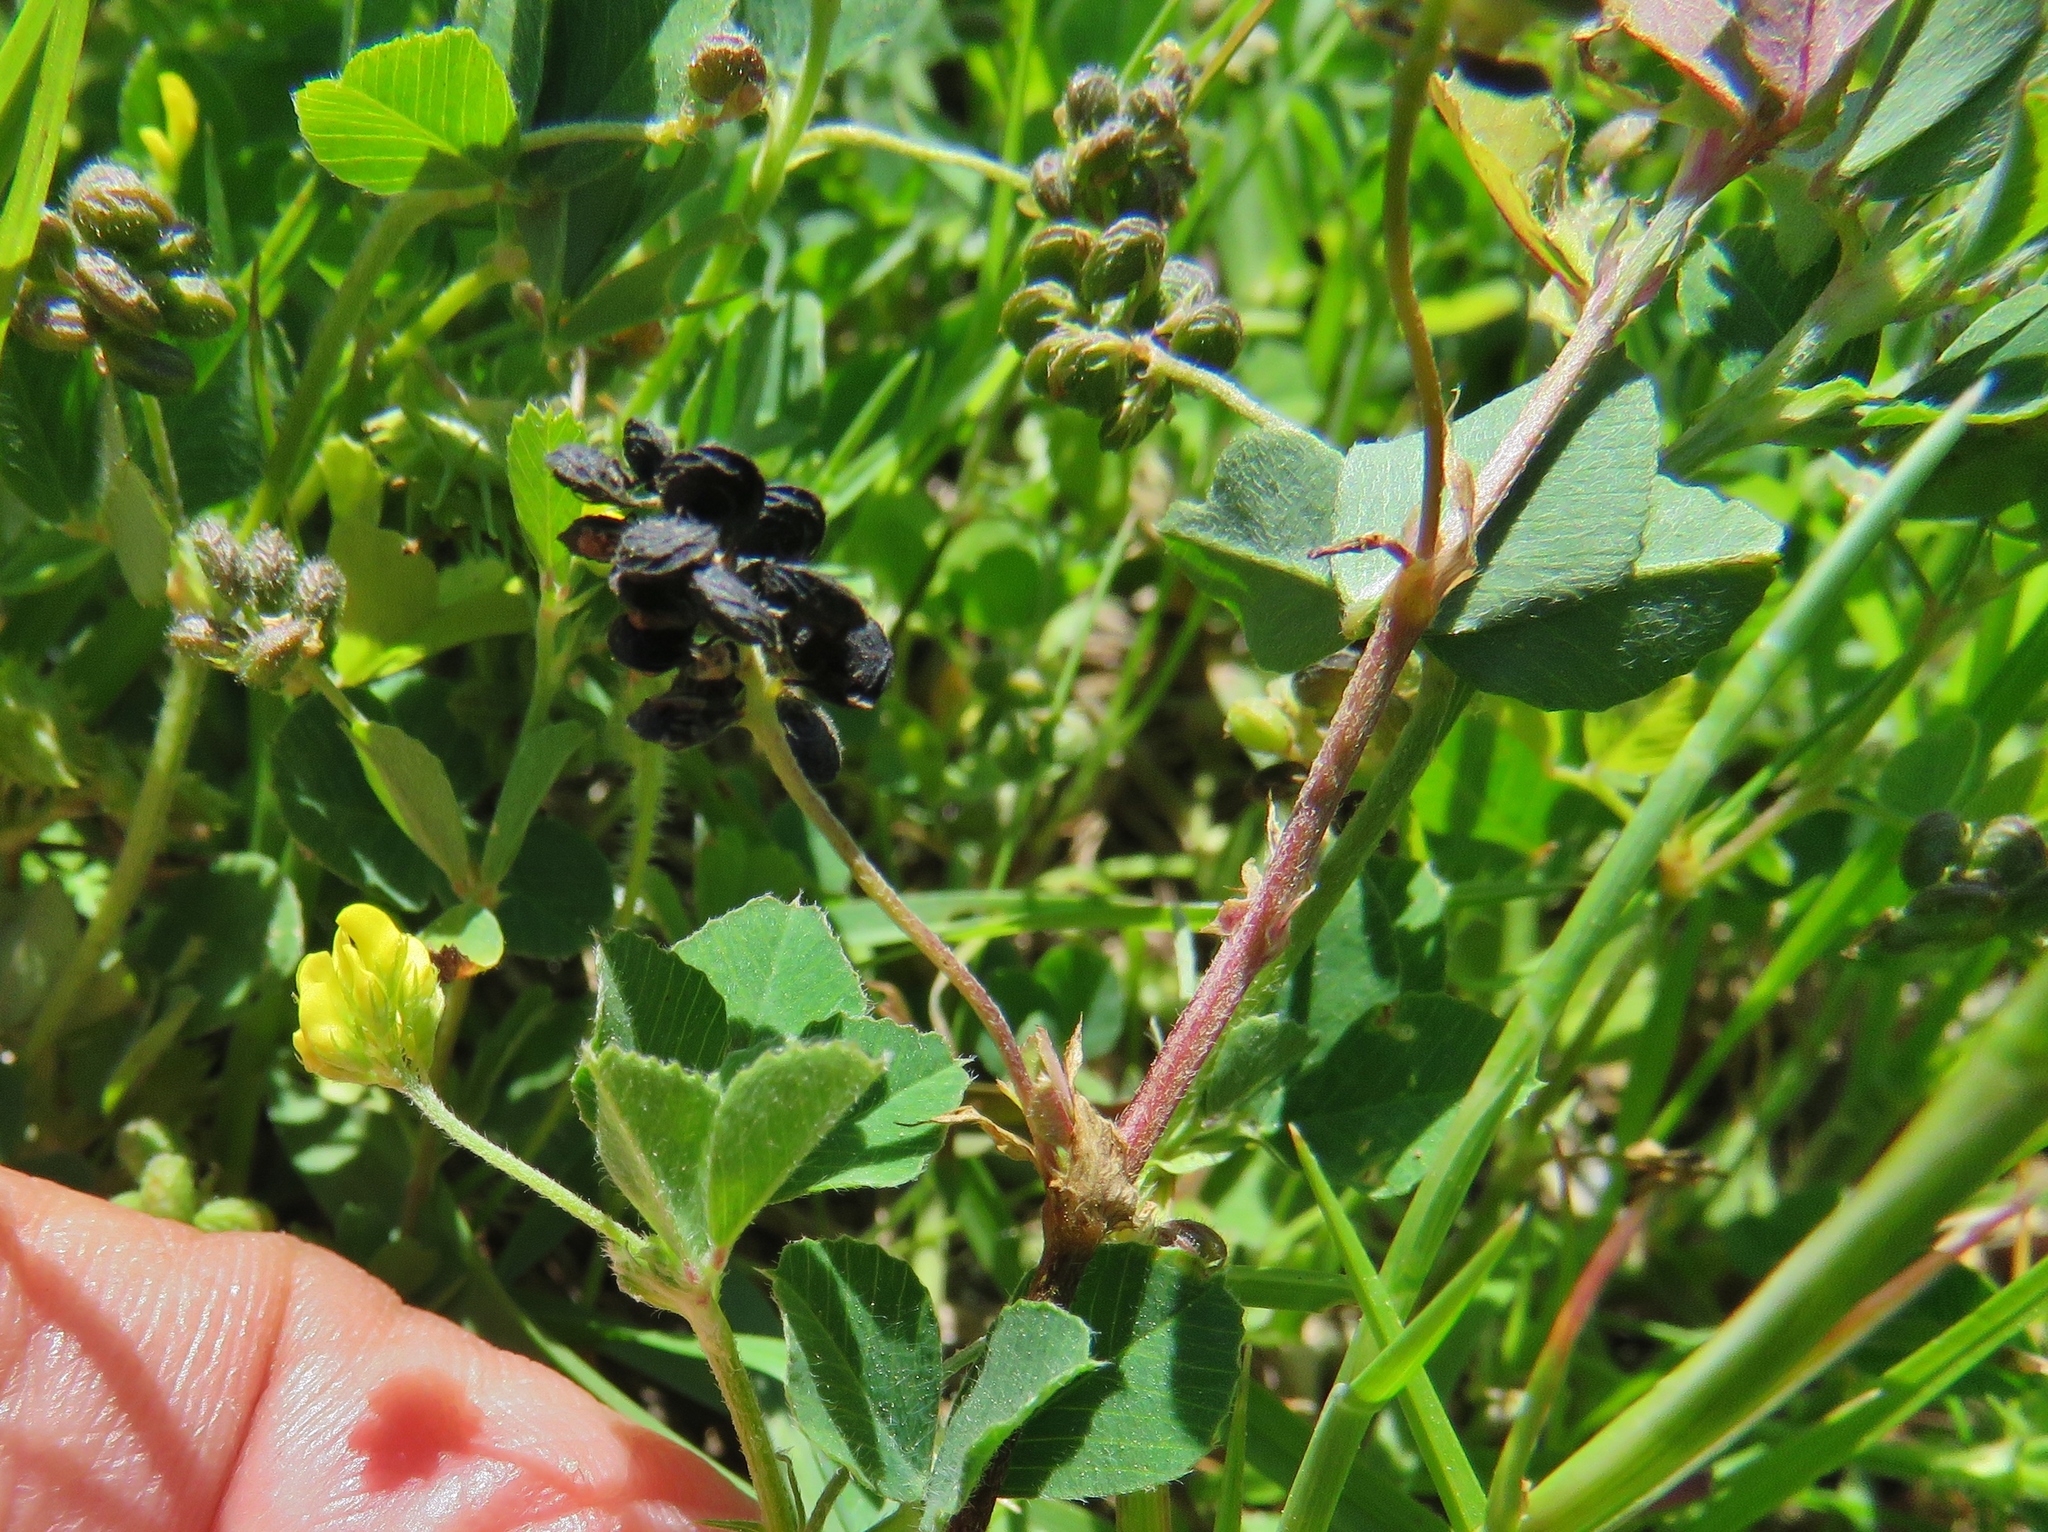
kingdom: Plantae
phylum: Tracheophyta
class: Magnoliopsida
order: Fabales
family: Fabaceae
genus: Medicago
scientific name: Medicago lupulina
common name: Black medick
